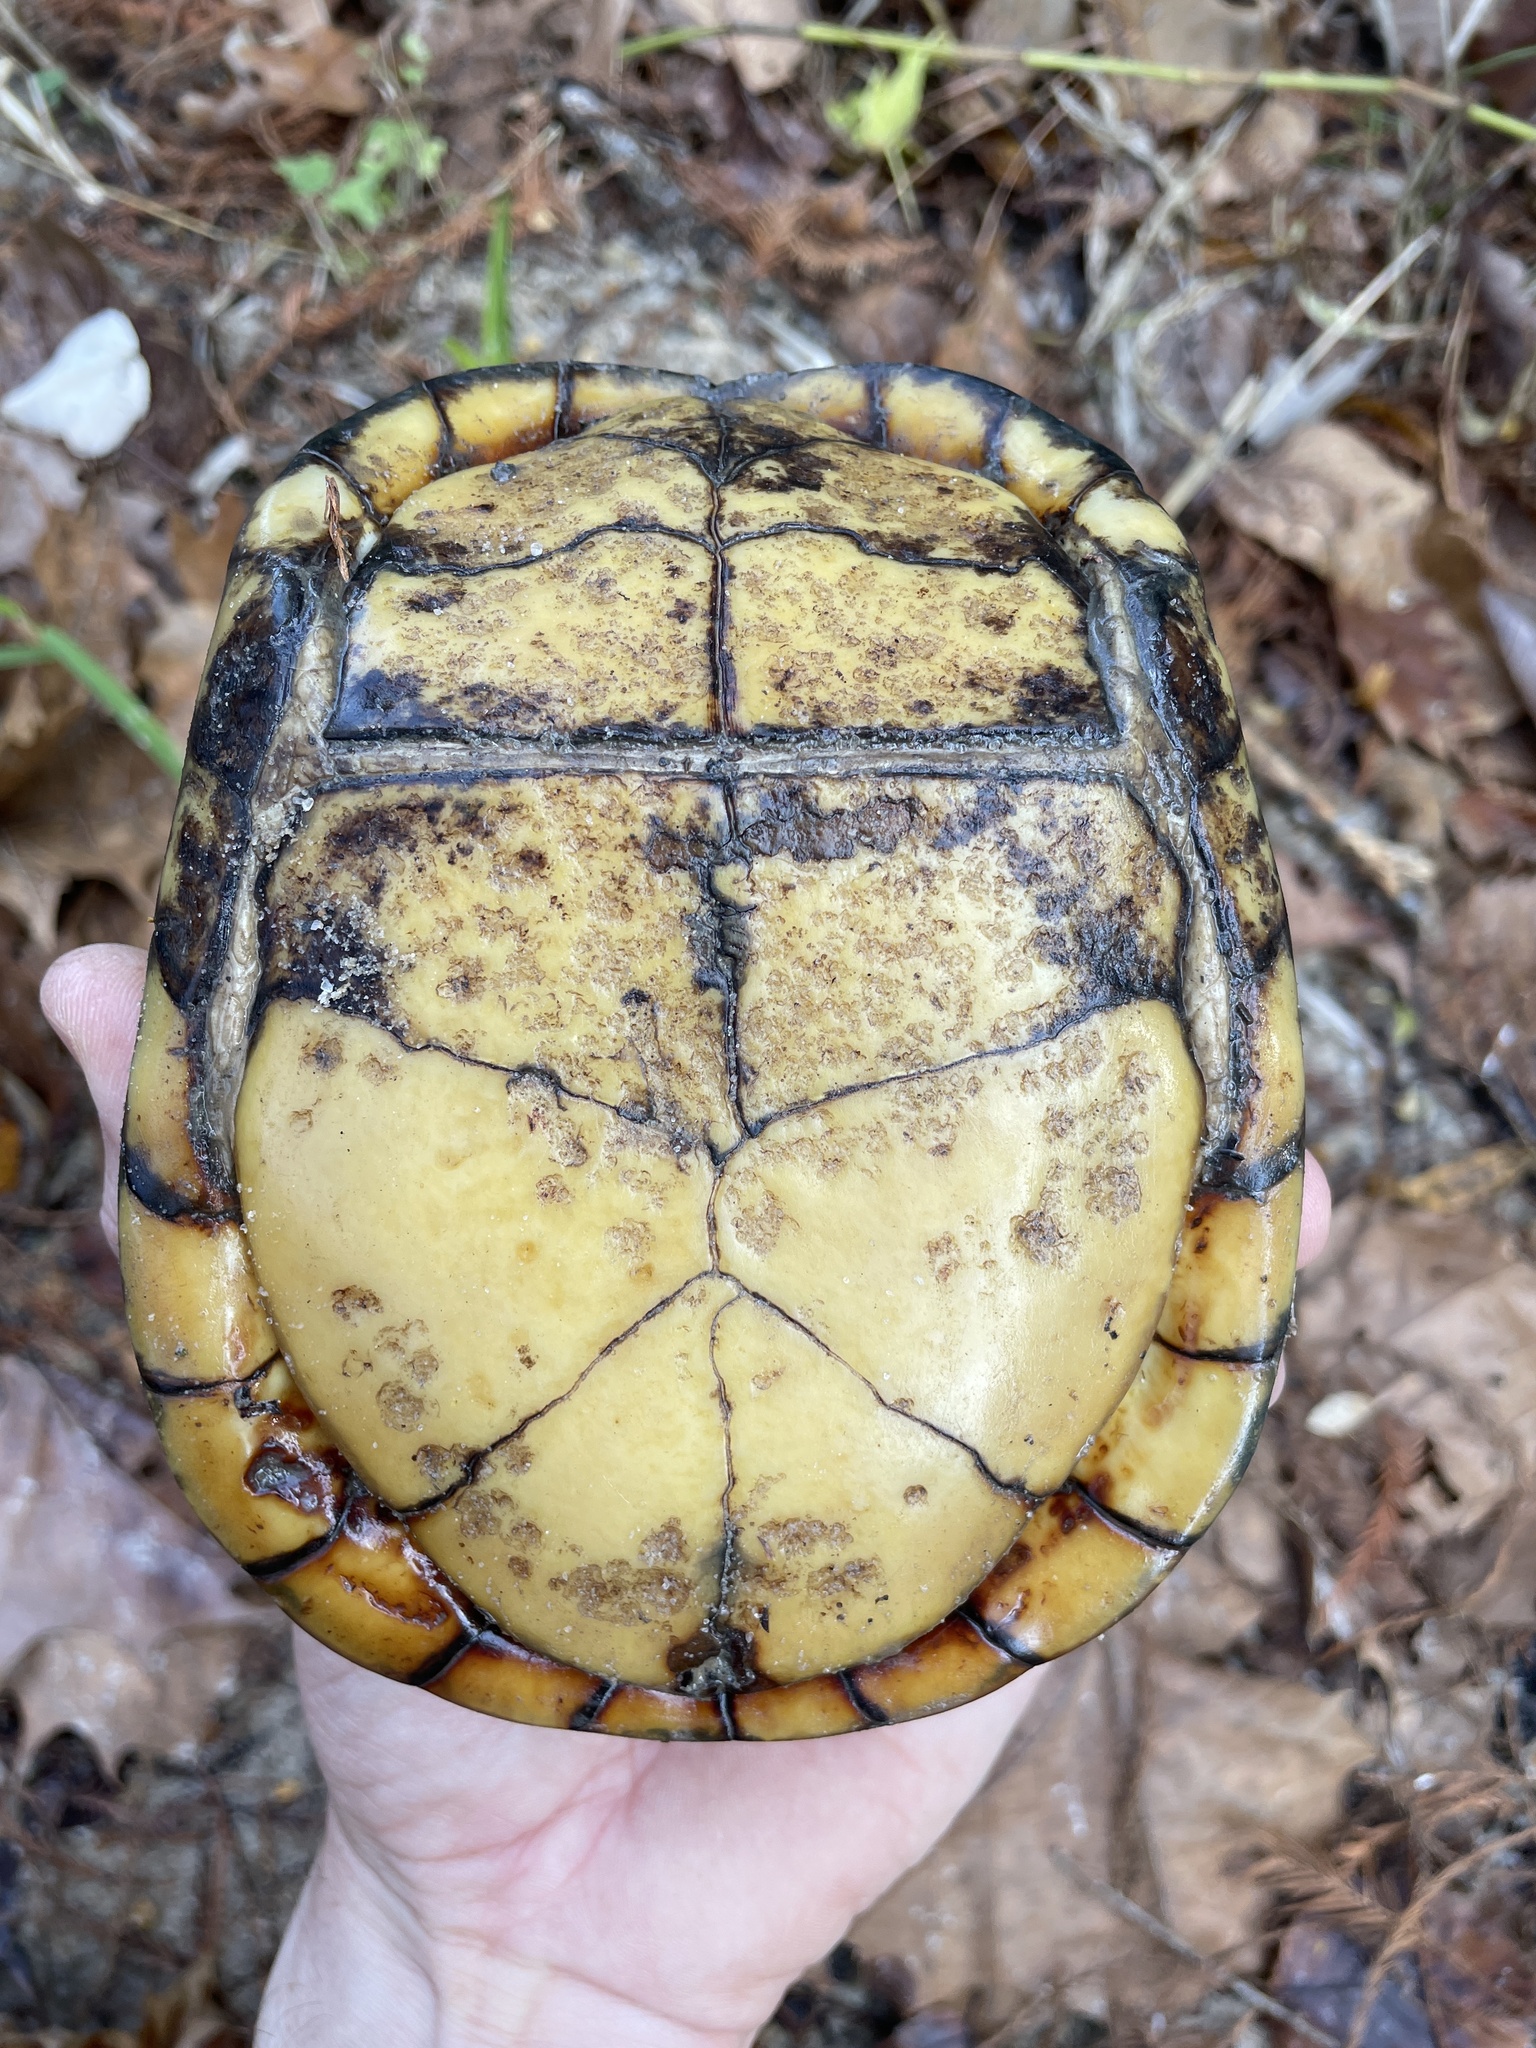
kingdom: Animalia
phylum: Chordata
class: Testudines
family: Emydidae
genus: Terrapene
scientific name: Terrapene carolina
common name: Common box turtle
